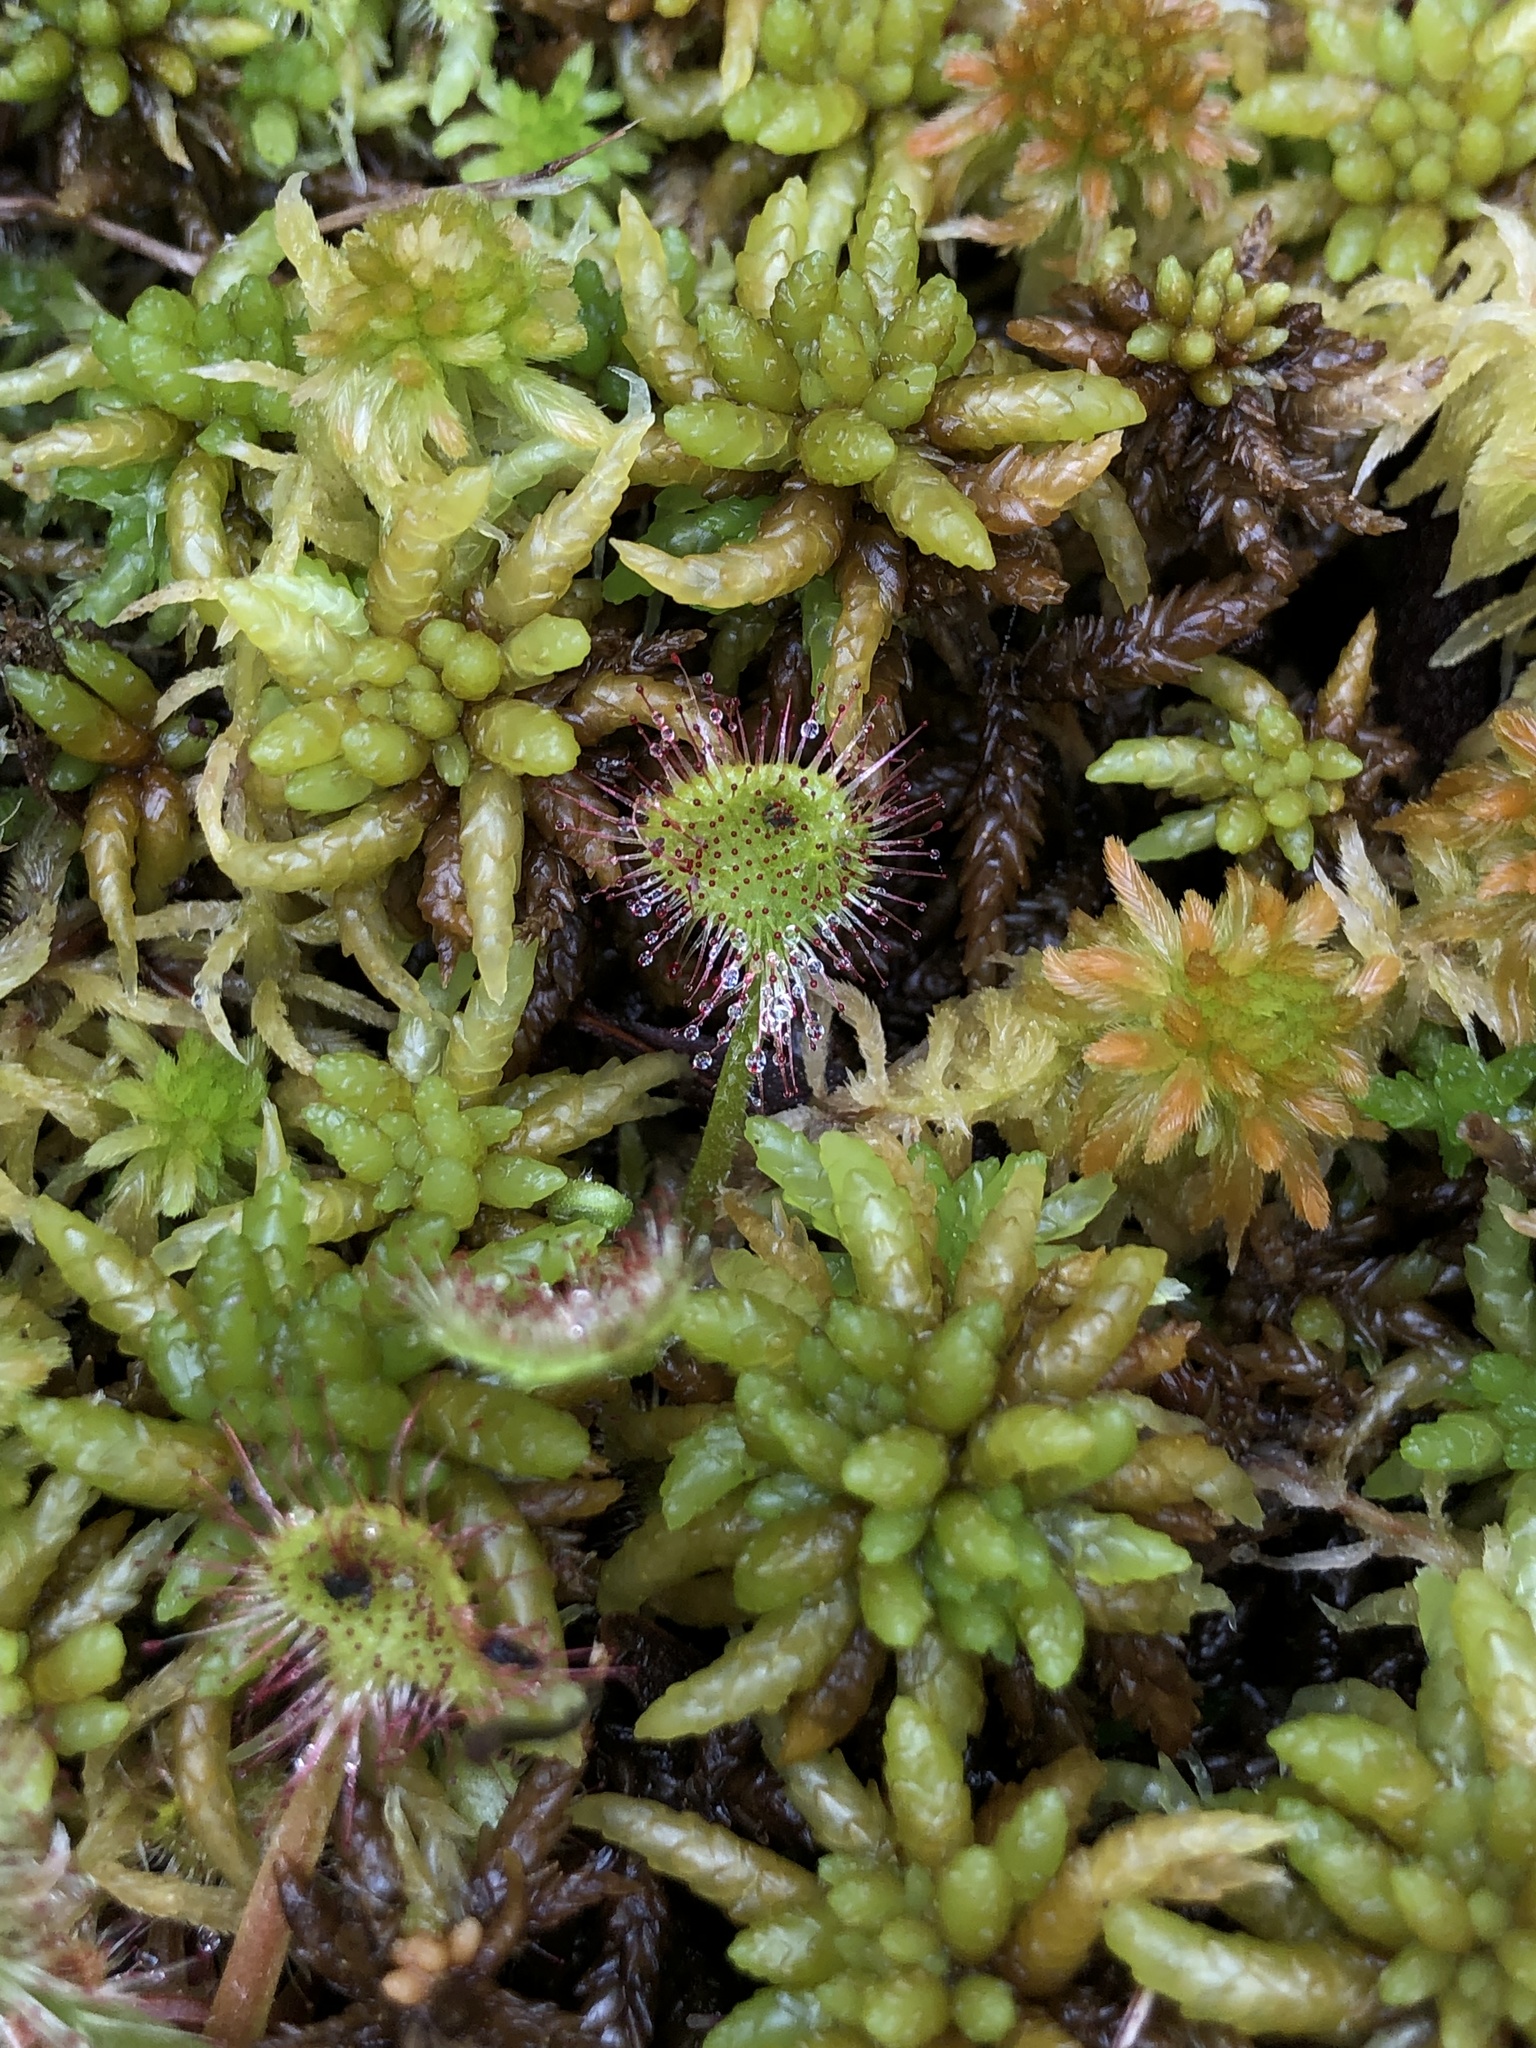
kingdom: Plantae
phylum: Tracheophyta
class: Magnoliopsida
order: Caryophyllales
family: Droseraceae
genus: Drosera
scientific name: Drosera rotundifolia
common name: Round-leaved sundew
